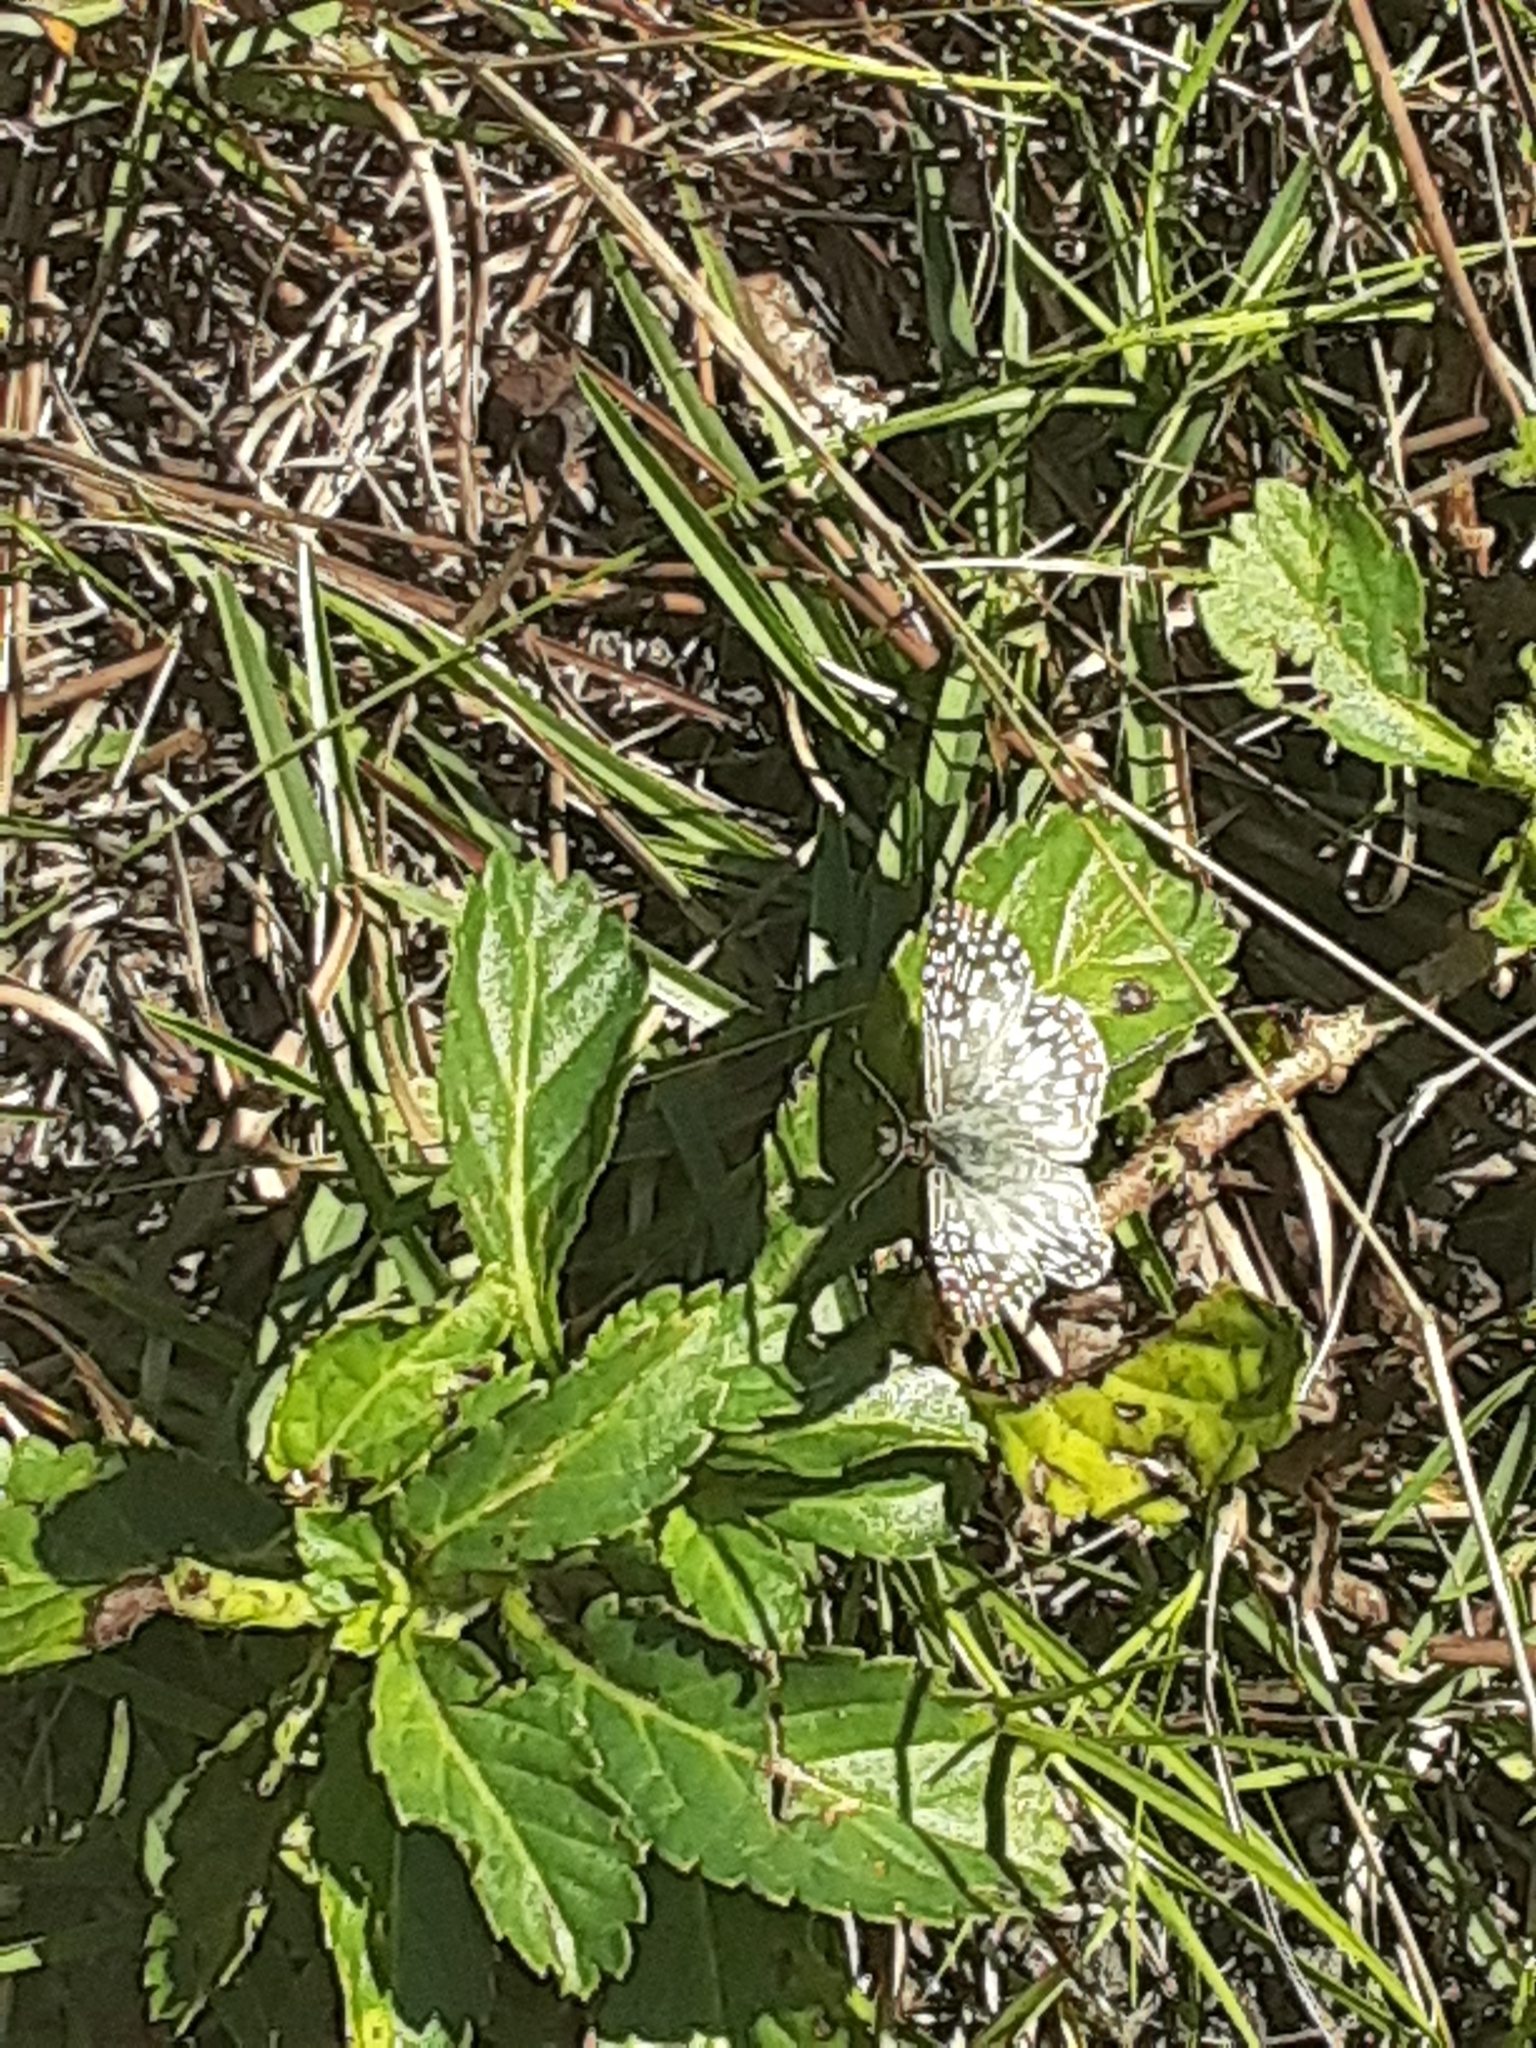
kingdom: Animalia
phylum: Arthropoda
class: Insecta
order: Lepidoptera
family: Hesperiidae
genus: Pyrgus
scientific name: Pyrgus oileus
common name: Tropical checkered-skipper
